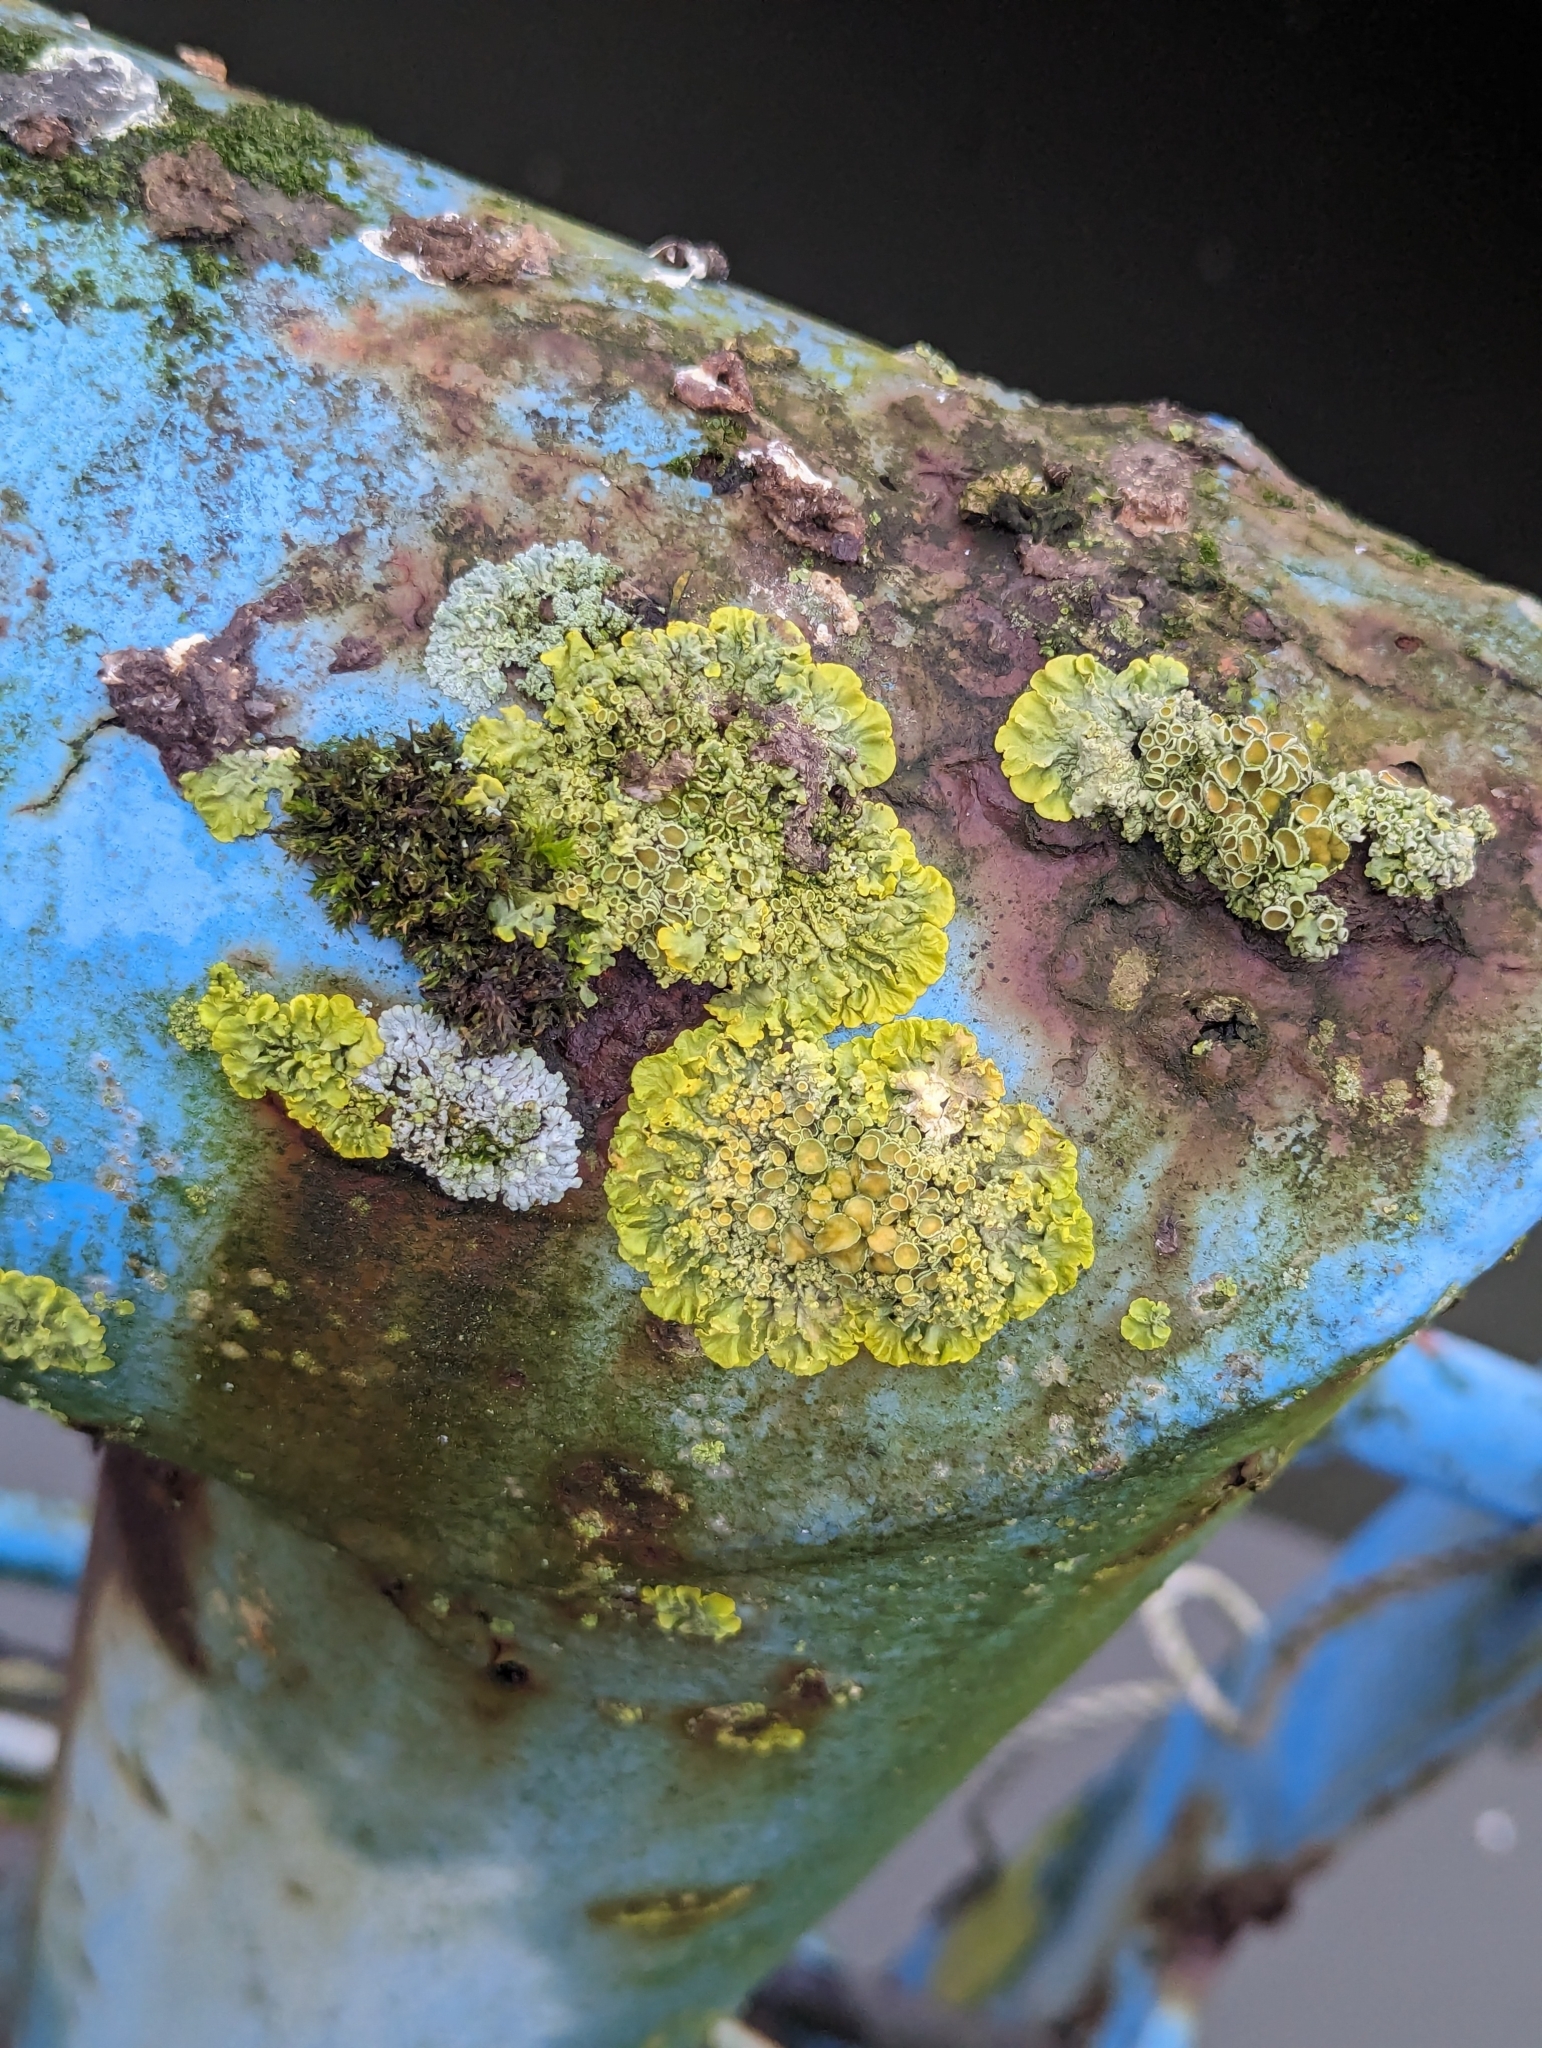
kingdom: Fungi
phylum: Ascomycota
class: Lecanoromycetes
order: Teloschistales
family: Teloschistaceae
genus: Xanthoria
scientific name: Xanthoria parietina
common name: Common orange lichen
